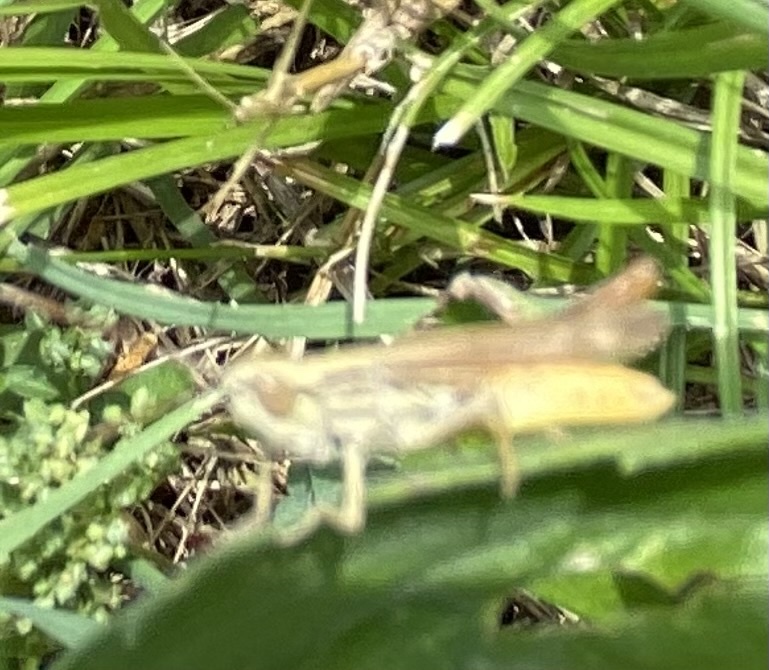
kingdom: Animalia
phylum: Arthropoda
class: Insecta
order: Orthoptera
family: Acrididae
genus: Euchorthippus
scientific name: Euchorthippus elegantulus
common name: Elegant straw grasshopper
